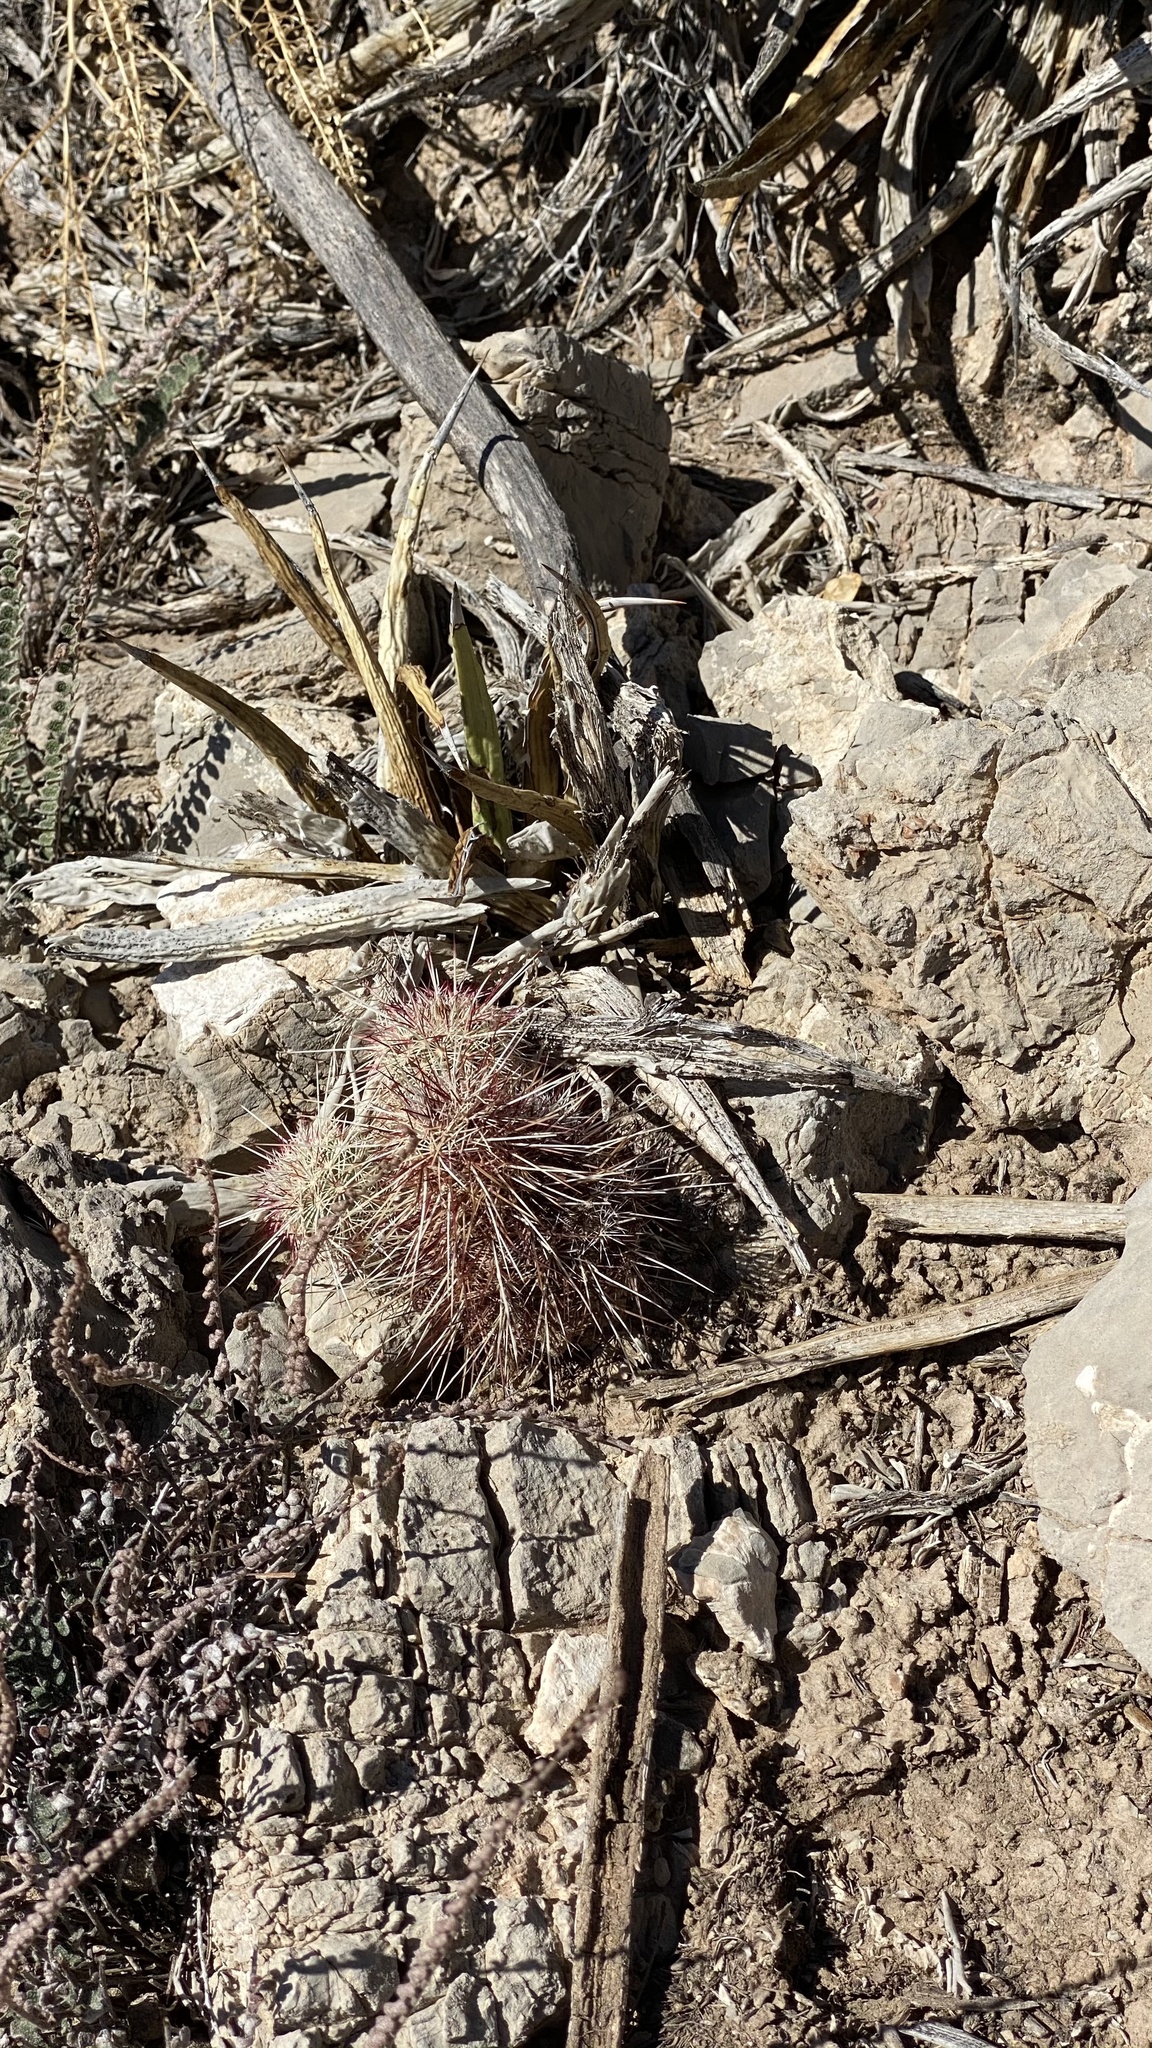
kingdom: Plantae
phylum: Tracheophyta
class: Magnoliopsida
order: Caryophyllales
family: Cactaceae
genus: Echinocereus
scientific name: Echinocereus viridiflorus
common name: Nylon hedgehog cactus
